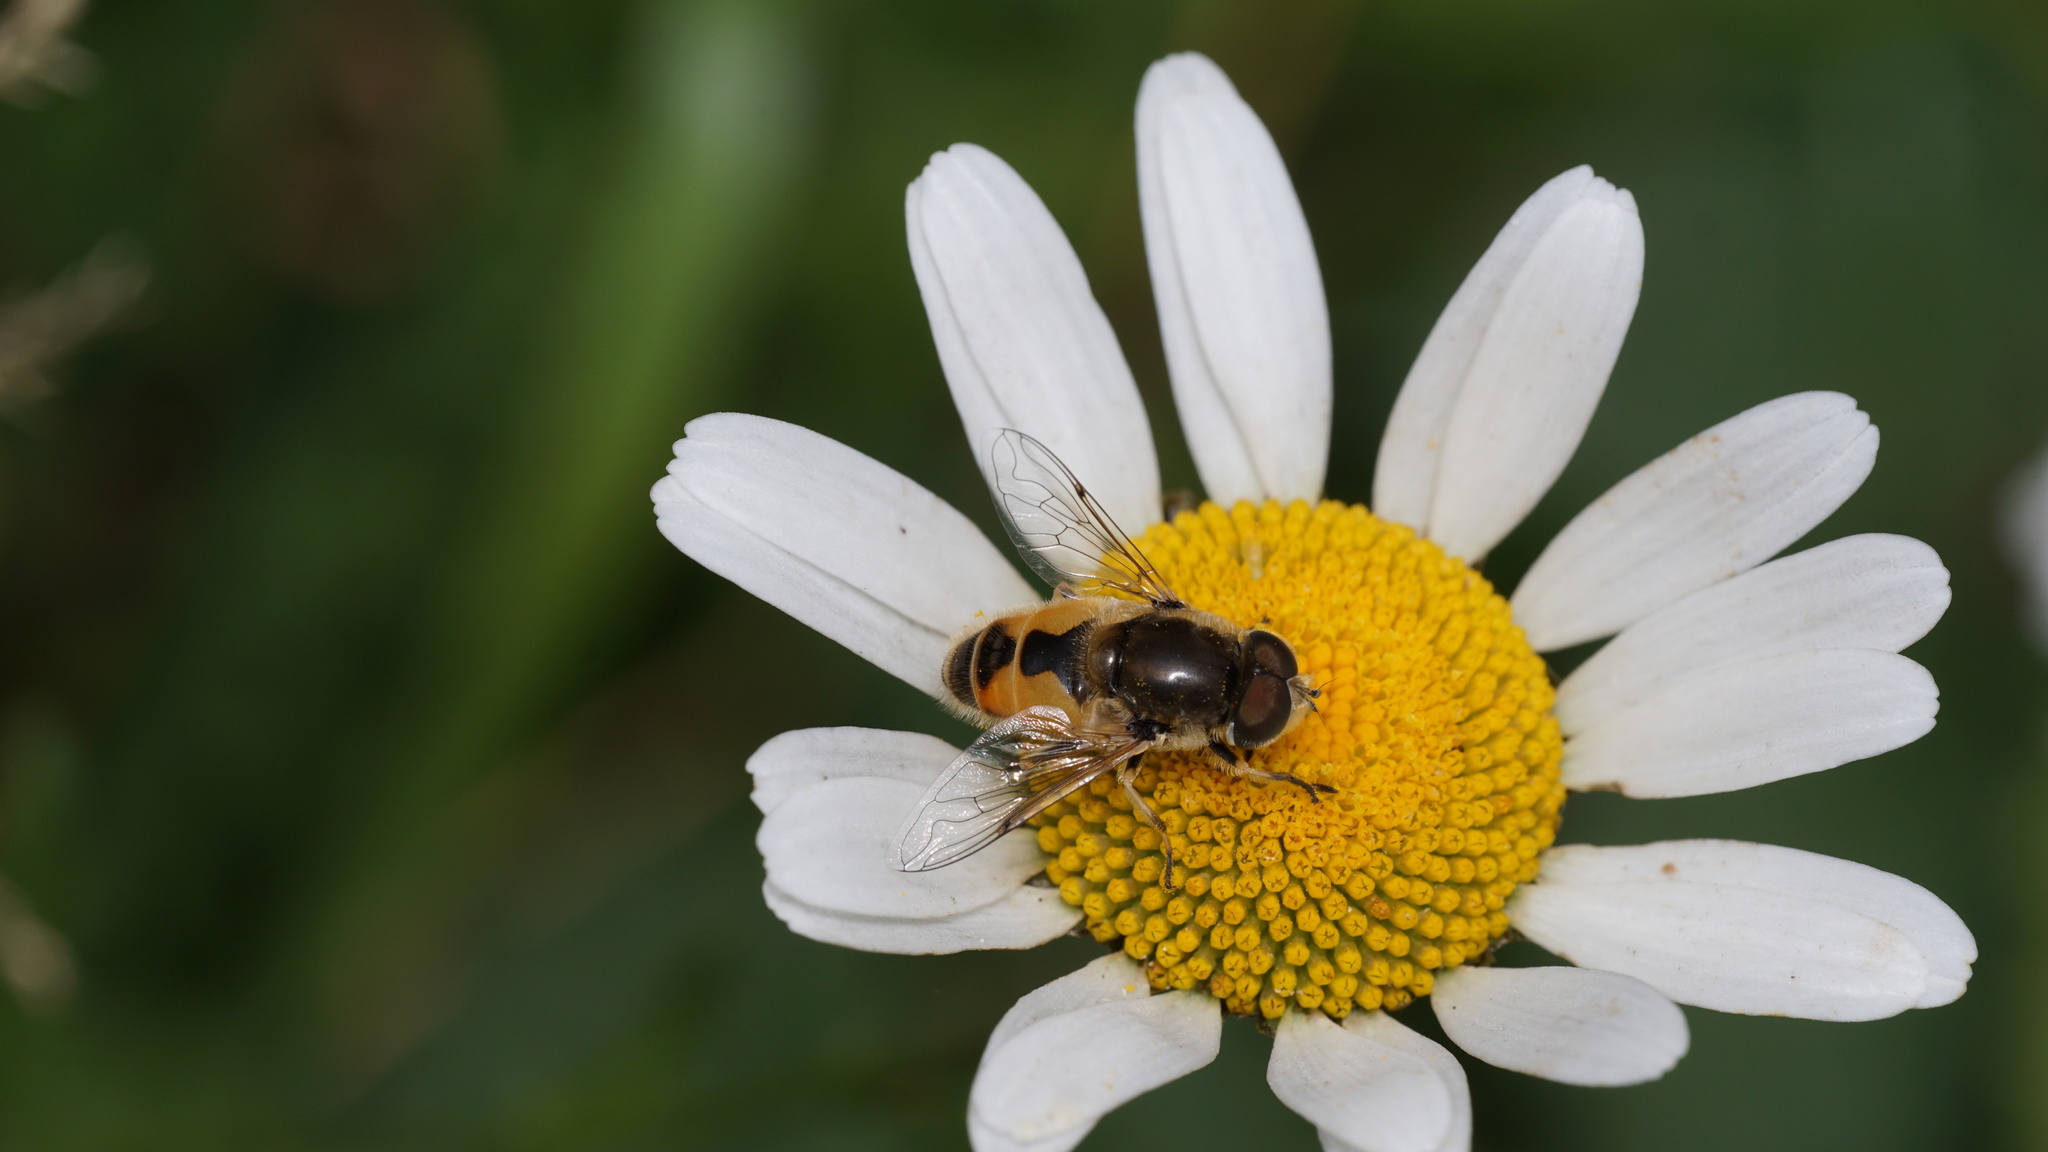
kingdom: Animalia
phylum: Arthropoda
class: Insecta
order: Diptera
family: Syrphidae
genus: Eristalis
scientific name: Eristalis arbustorum
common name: Hover fly
